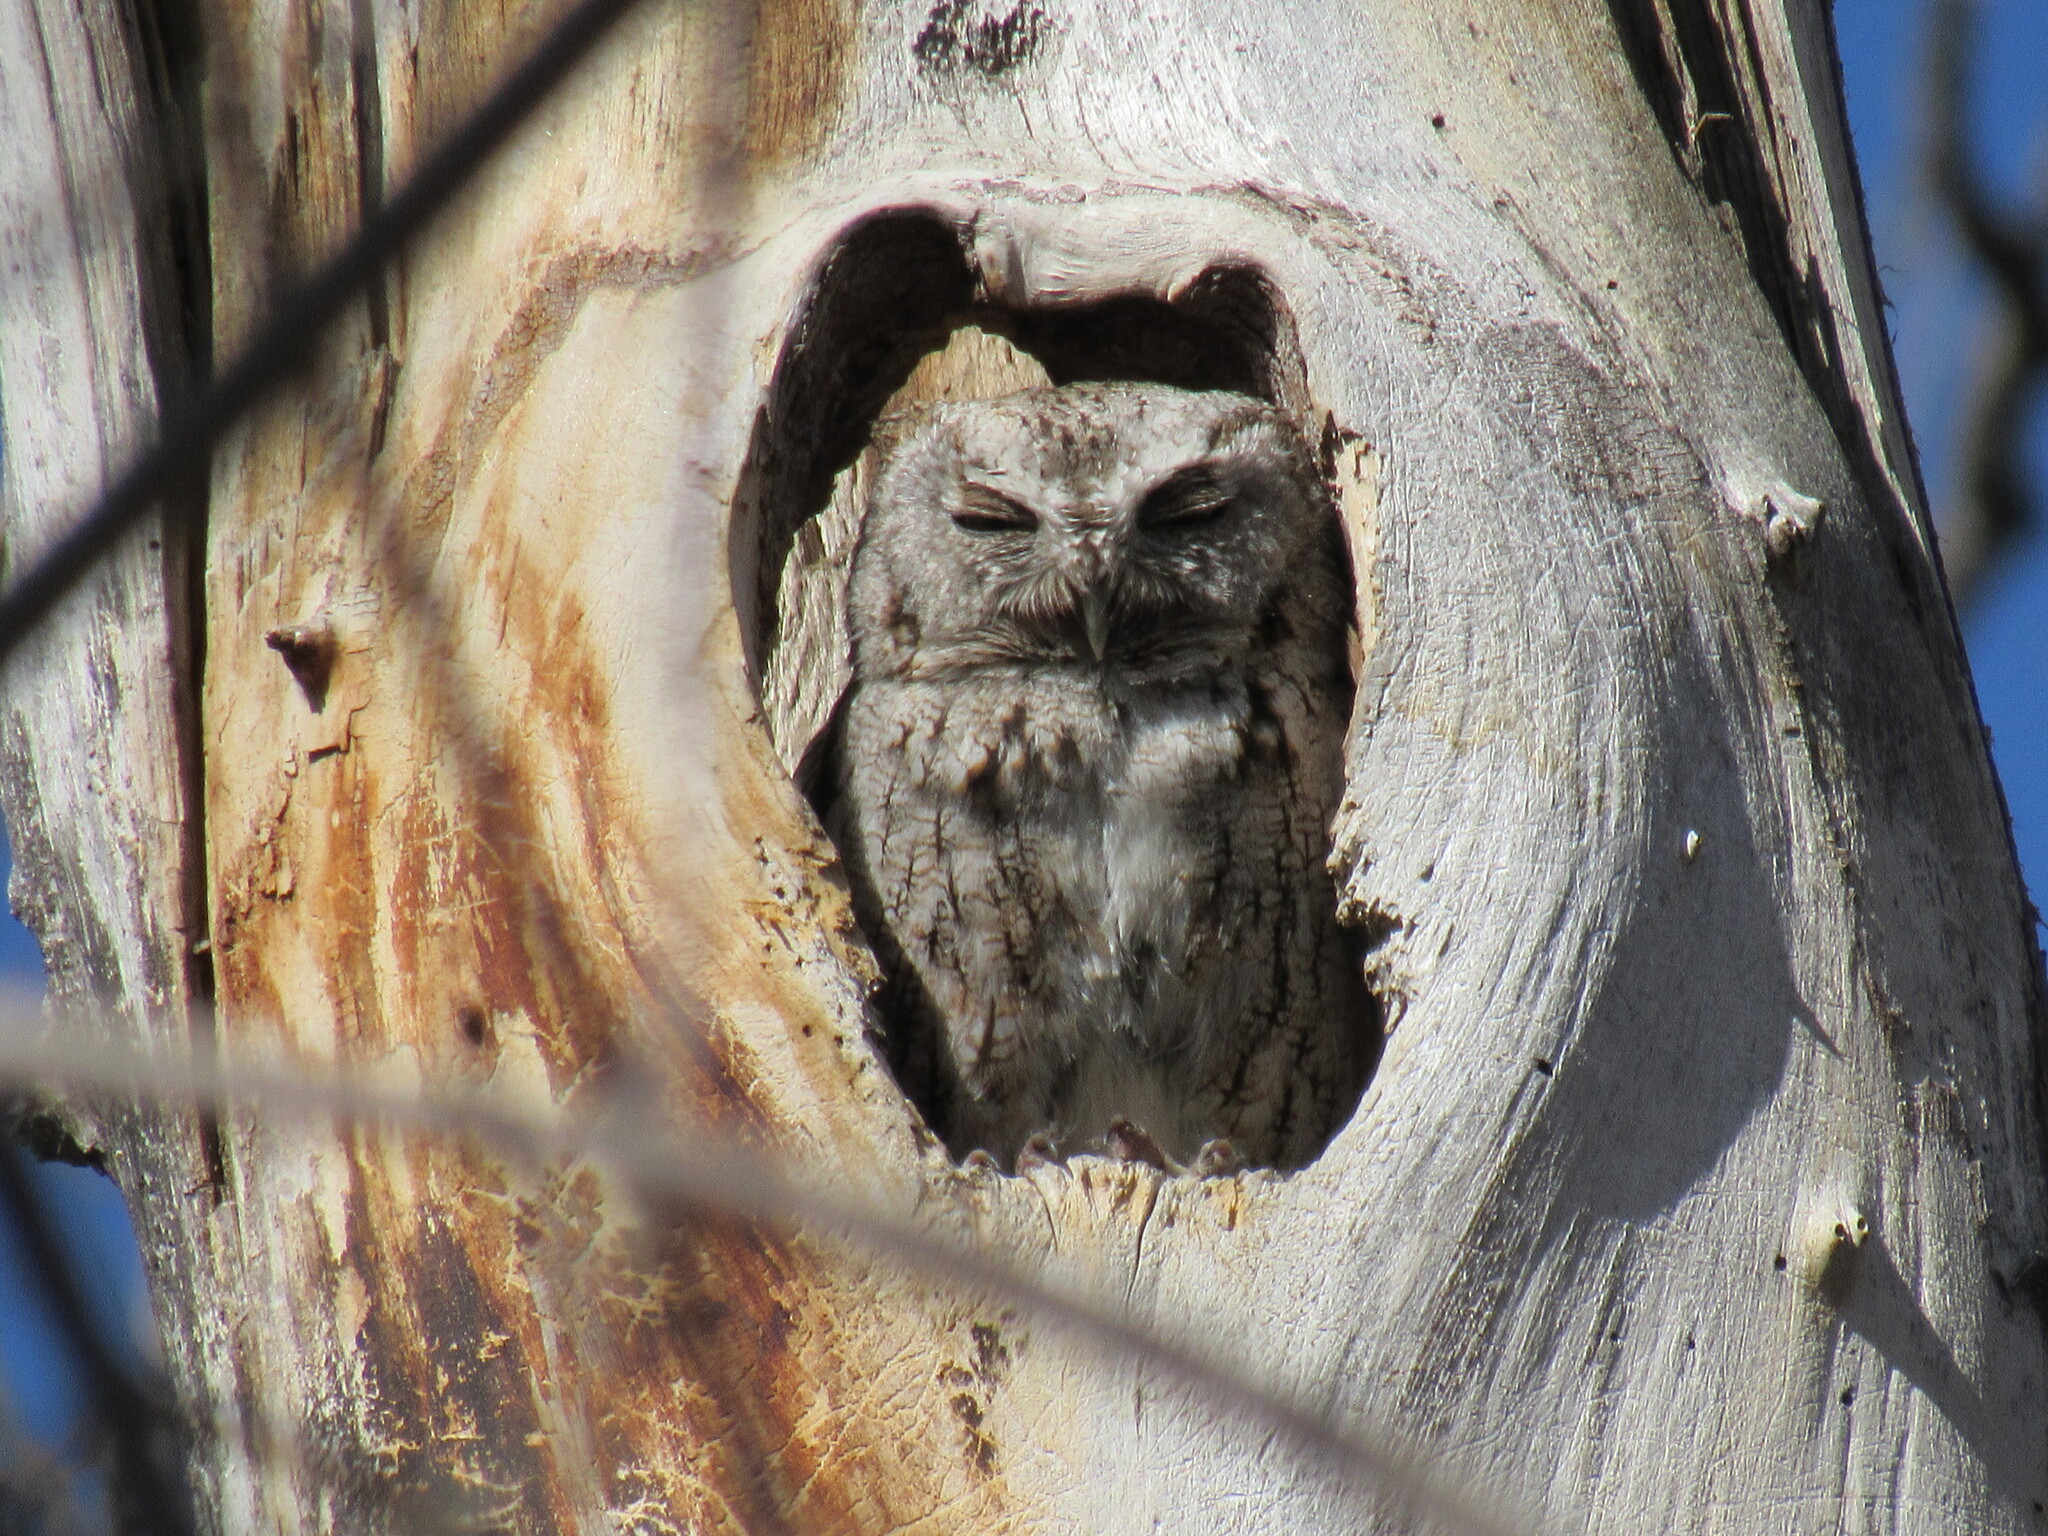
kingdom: Animalia
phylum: Chordata
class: Aves
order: Strigiformes
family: Strigidae
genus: Megascops
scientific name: Megascops asio
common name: Eastern screech-owl
